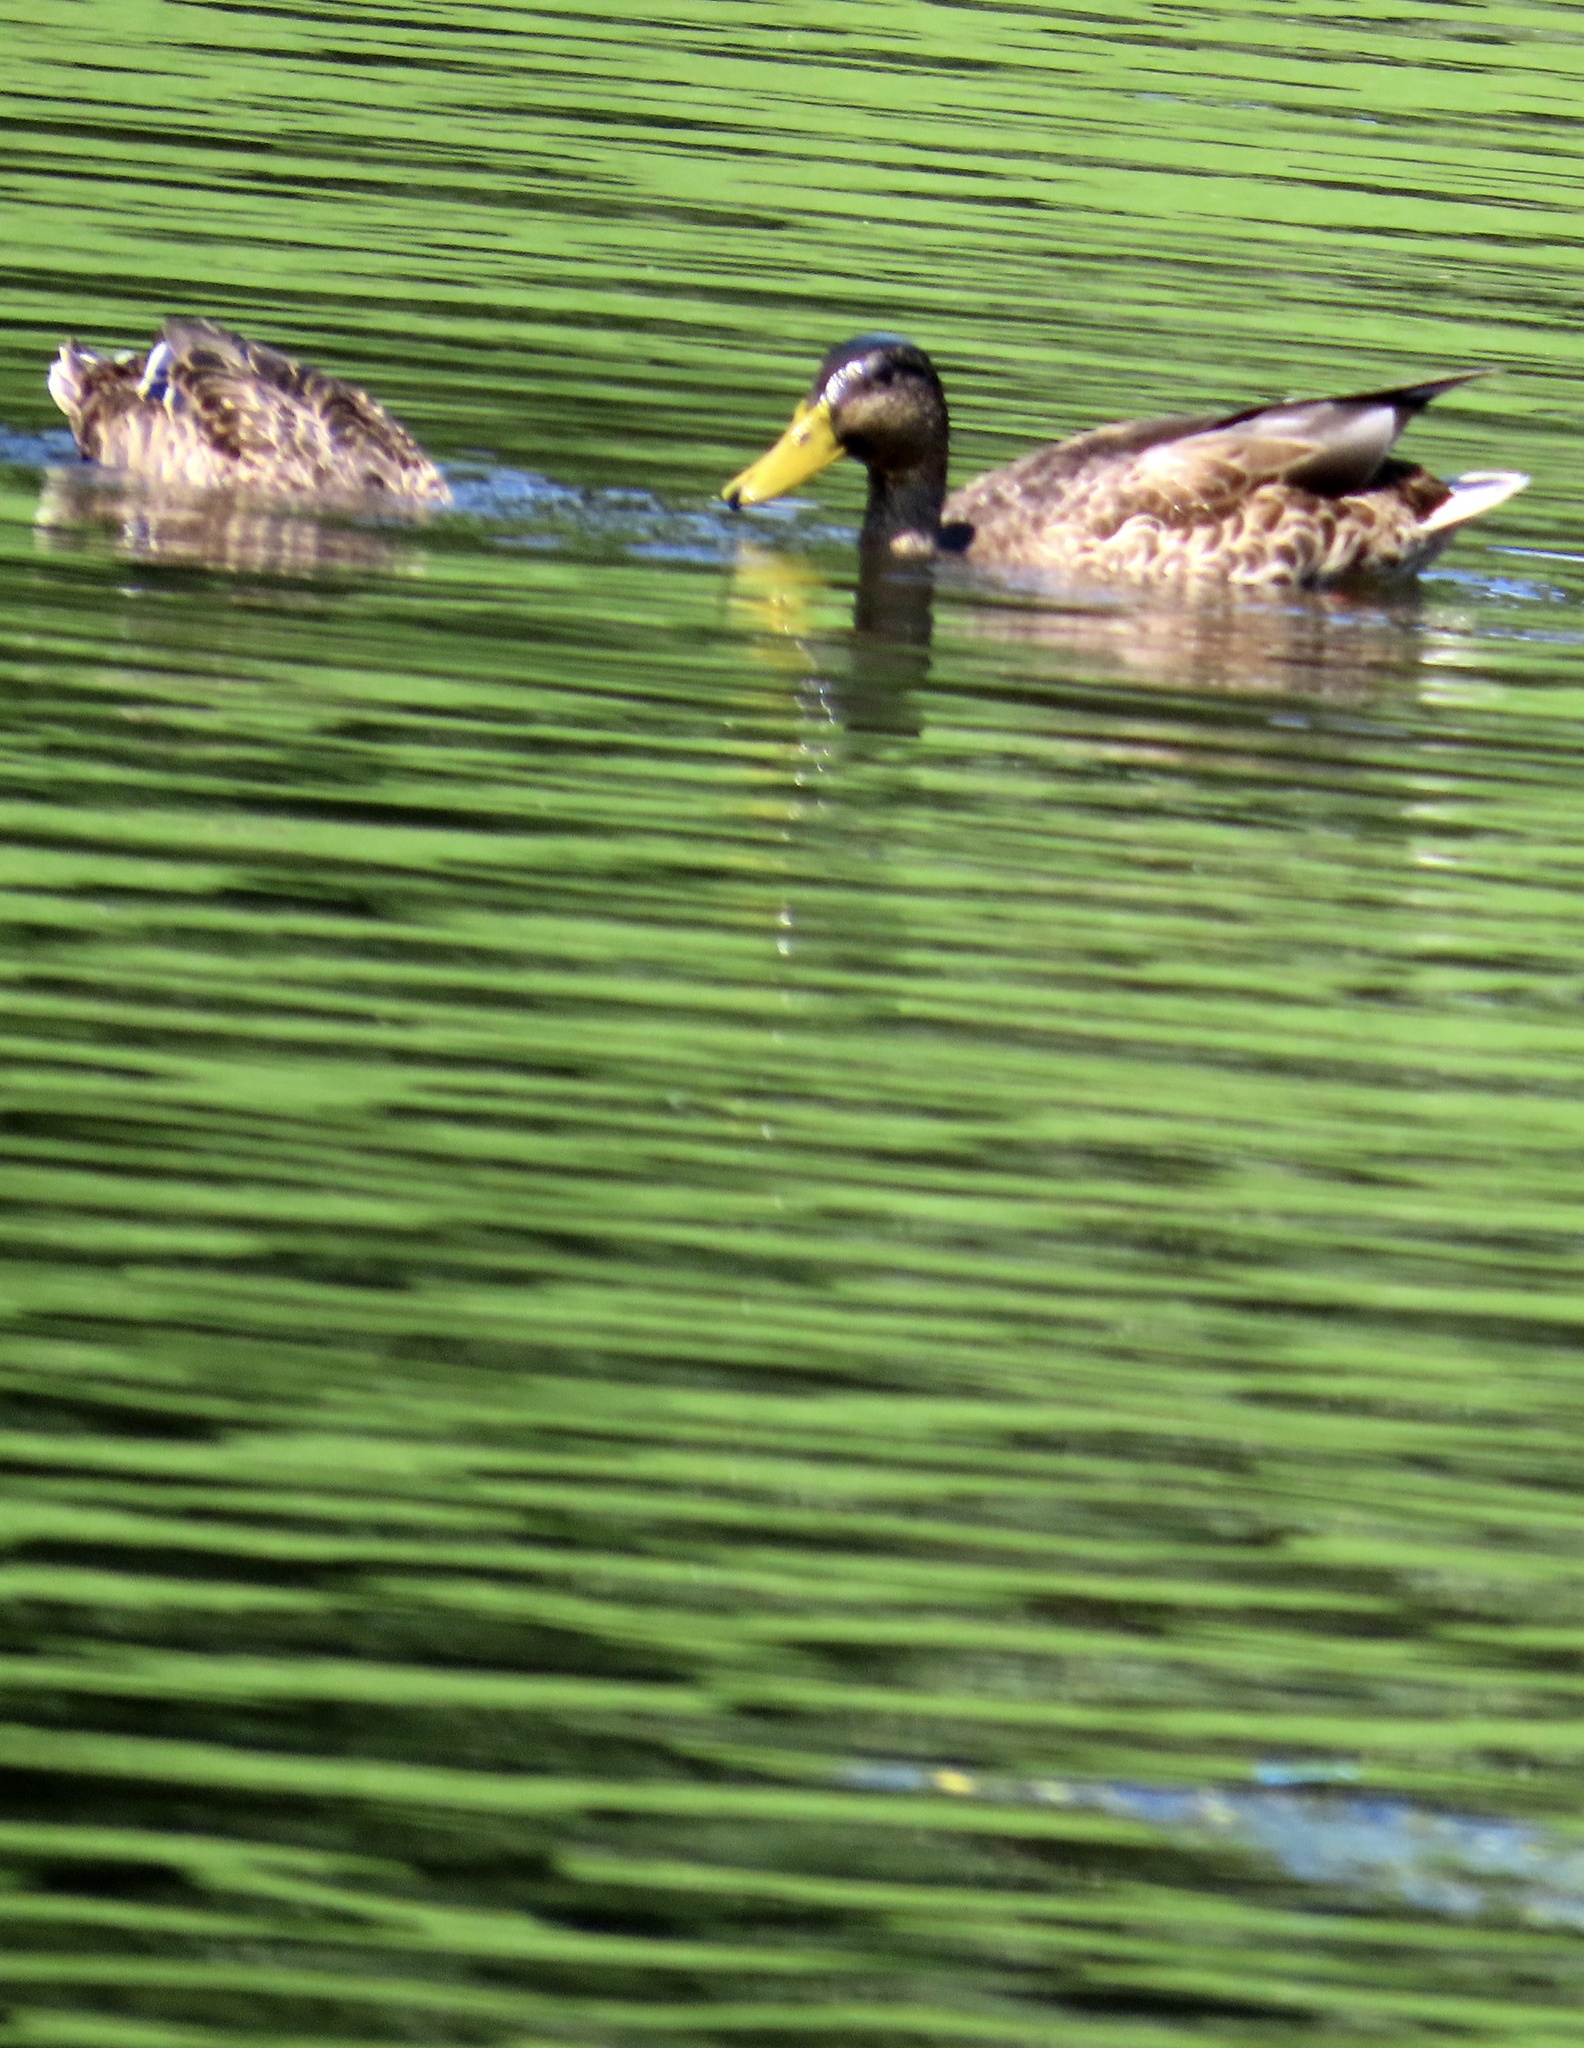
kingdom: Animalia
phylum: Chordata
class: Aves
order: Anseriformes
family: Anatidae
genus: Anas
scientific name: Anas platyrhynchos
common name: Mallard
